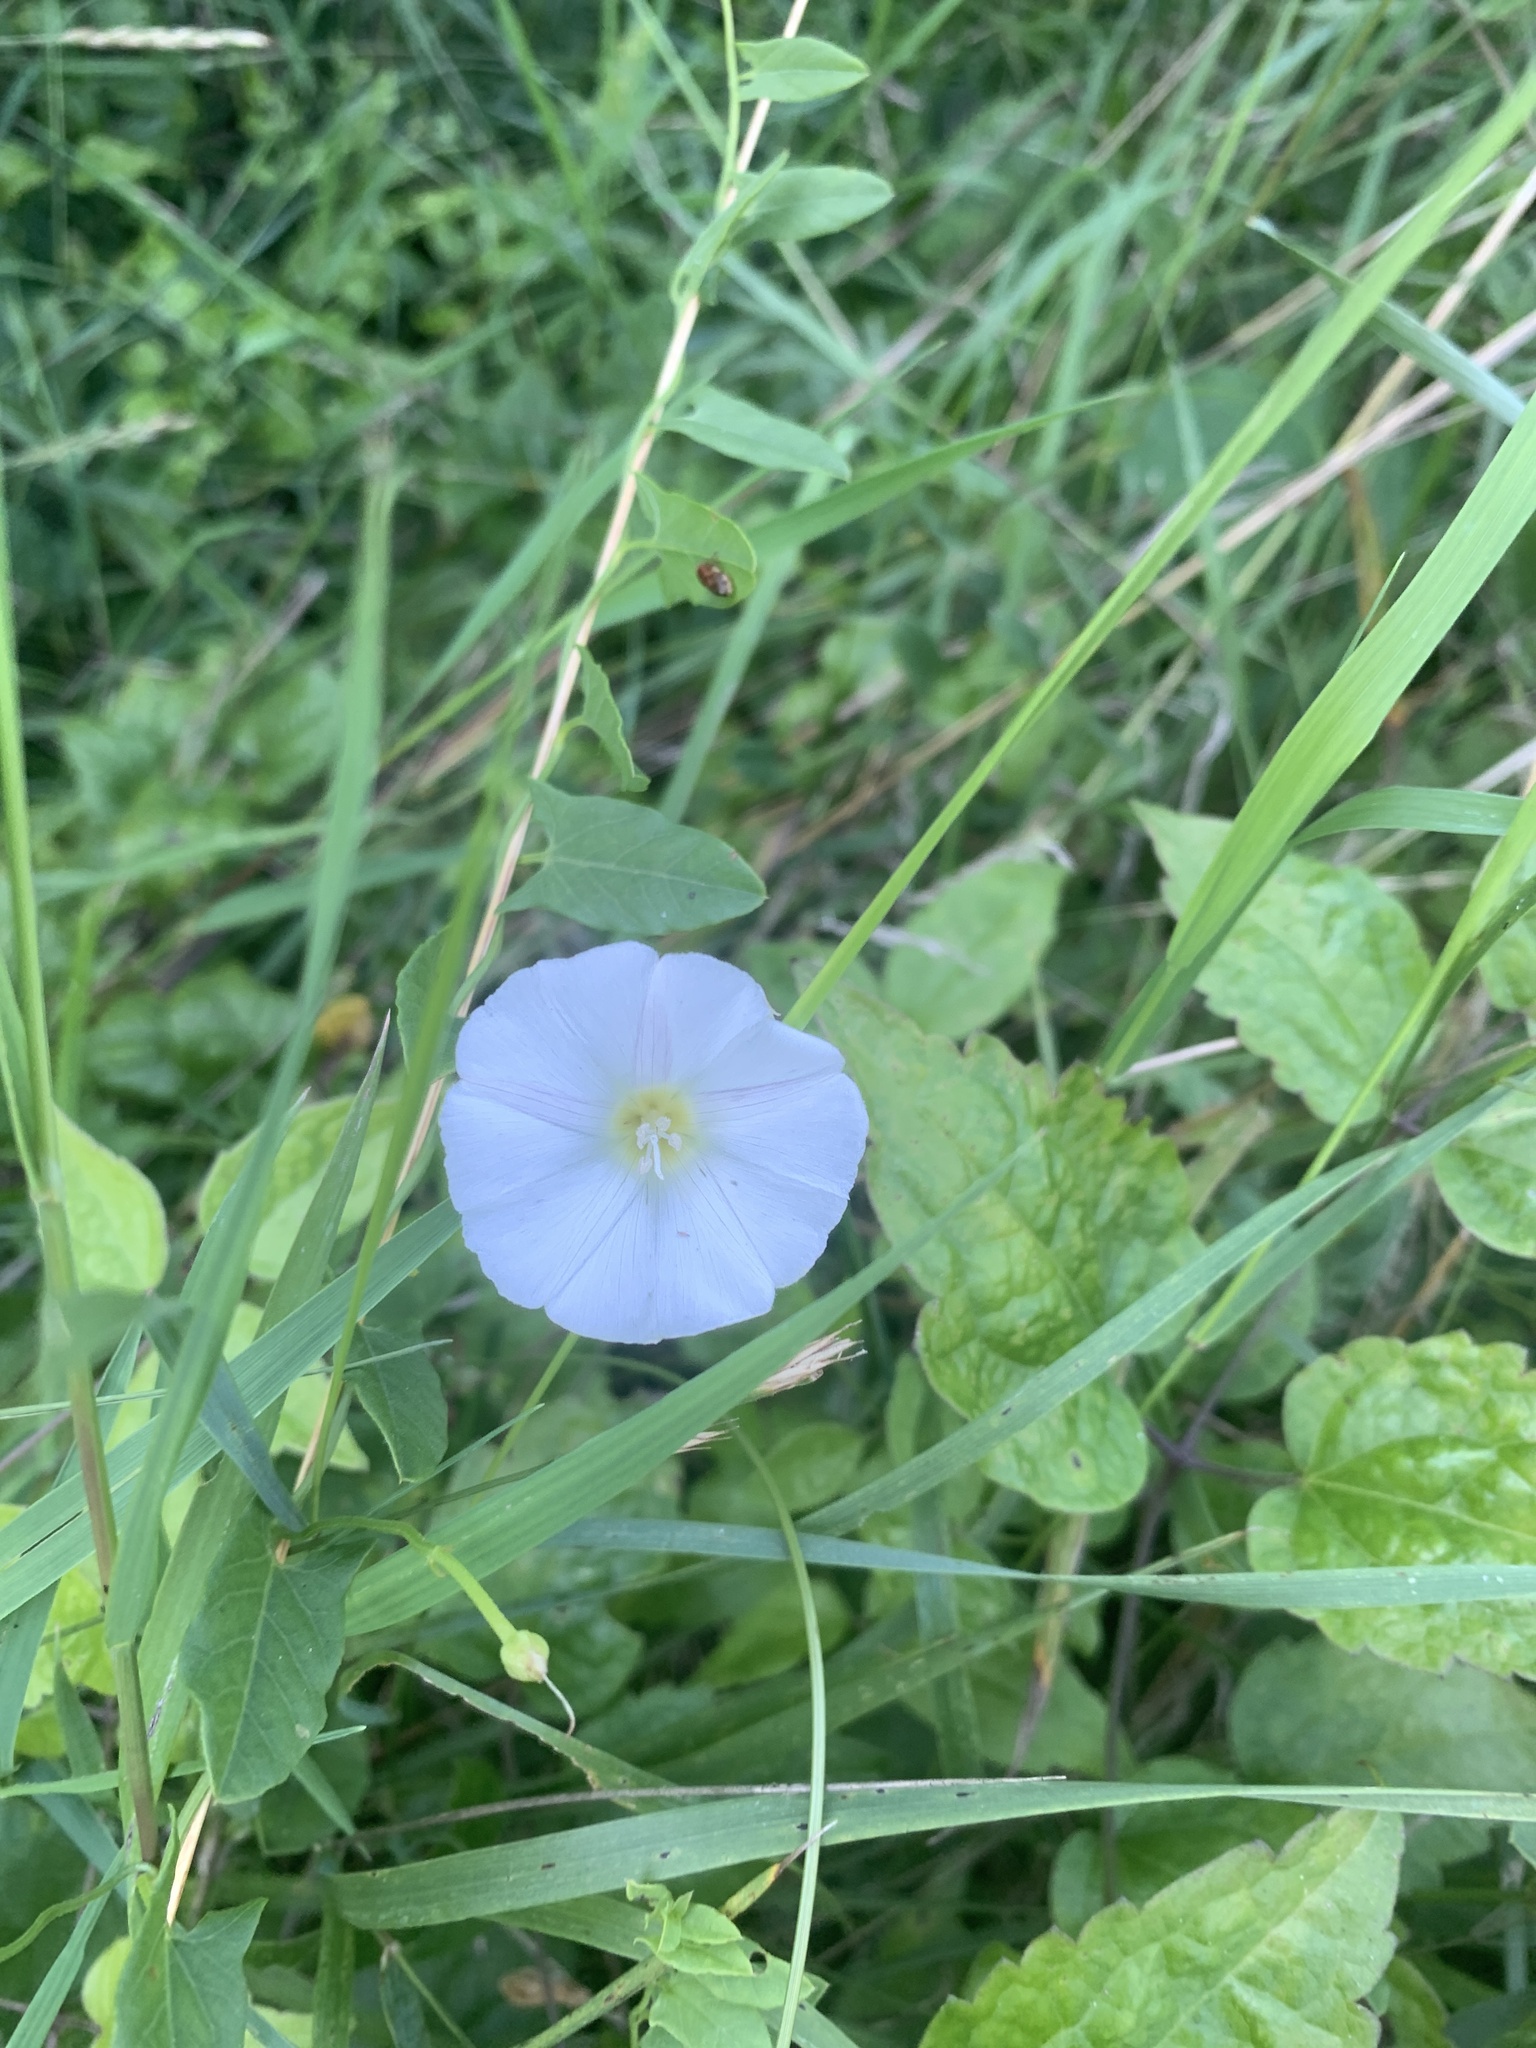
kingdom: Plantae
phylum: Tracheophyta
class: Magnoliopsida
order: Solanales
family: Convolvulaceae
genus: Convolvulus
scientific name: Convolvulus arvensis
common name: Field bindweed
